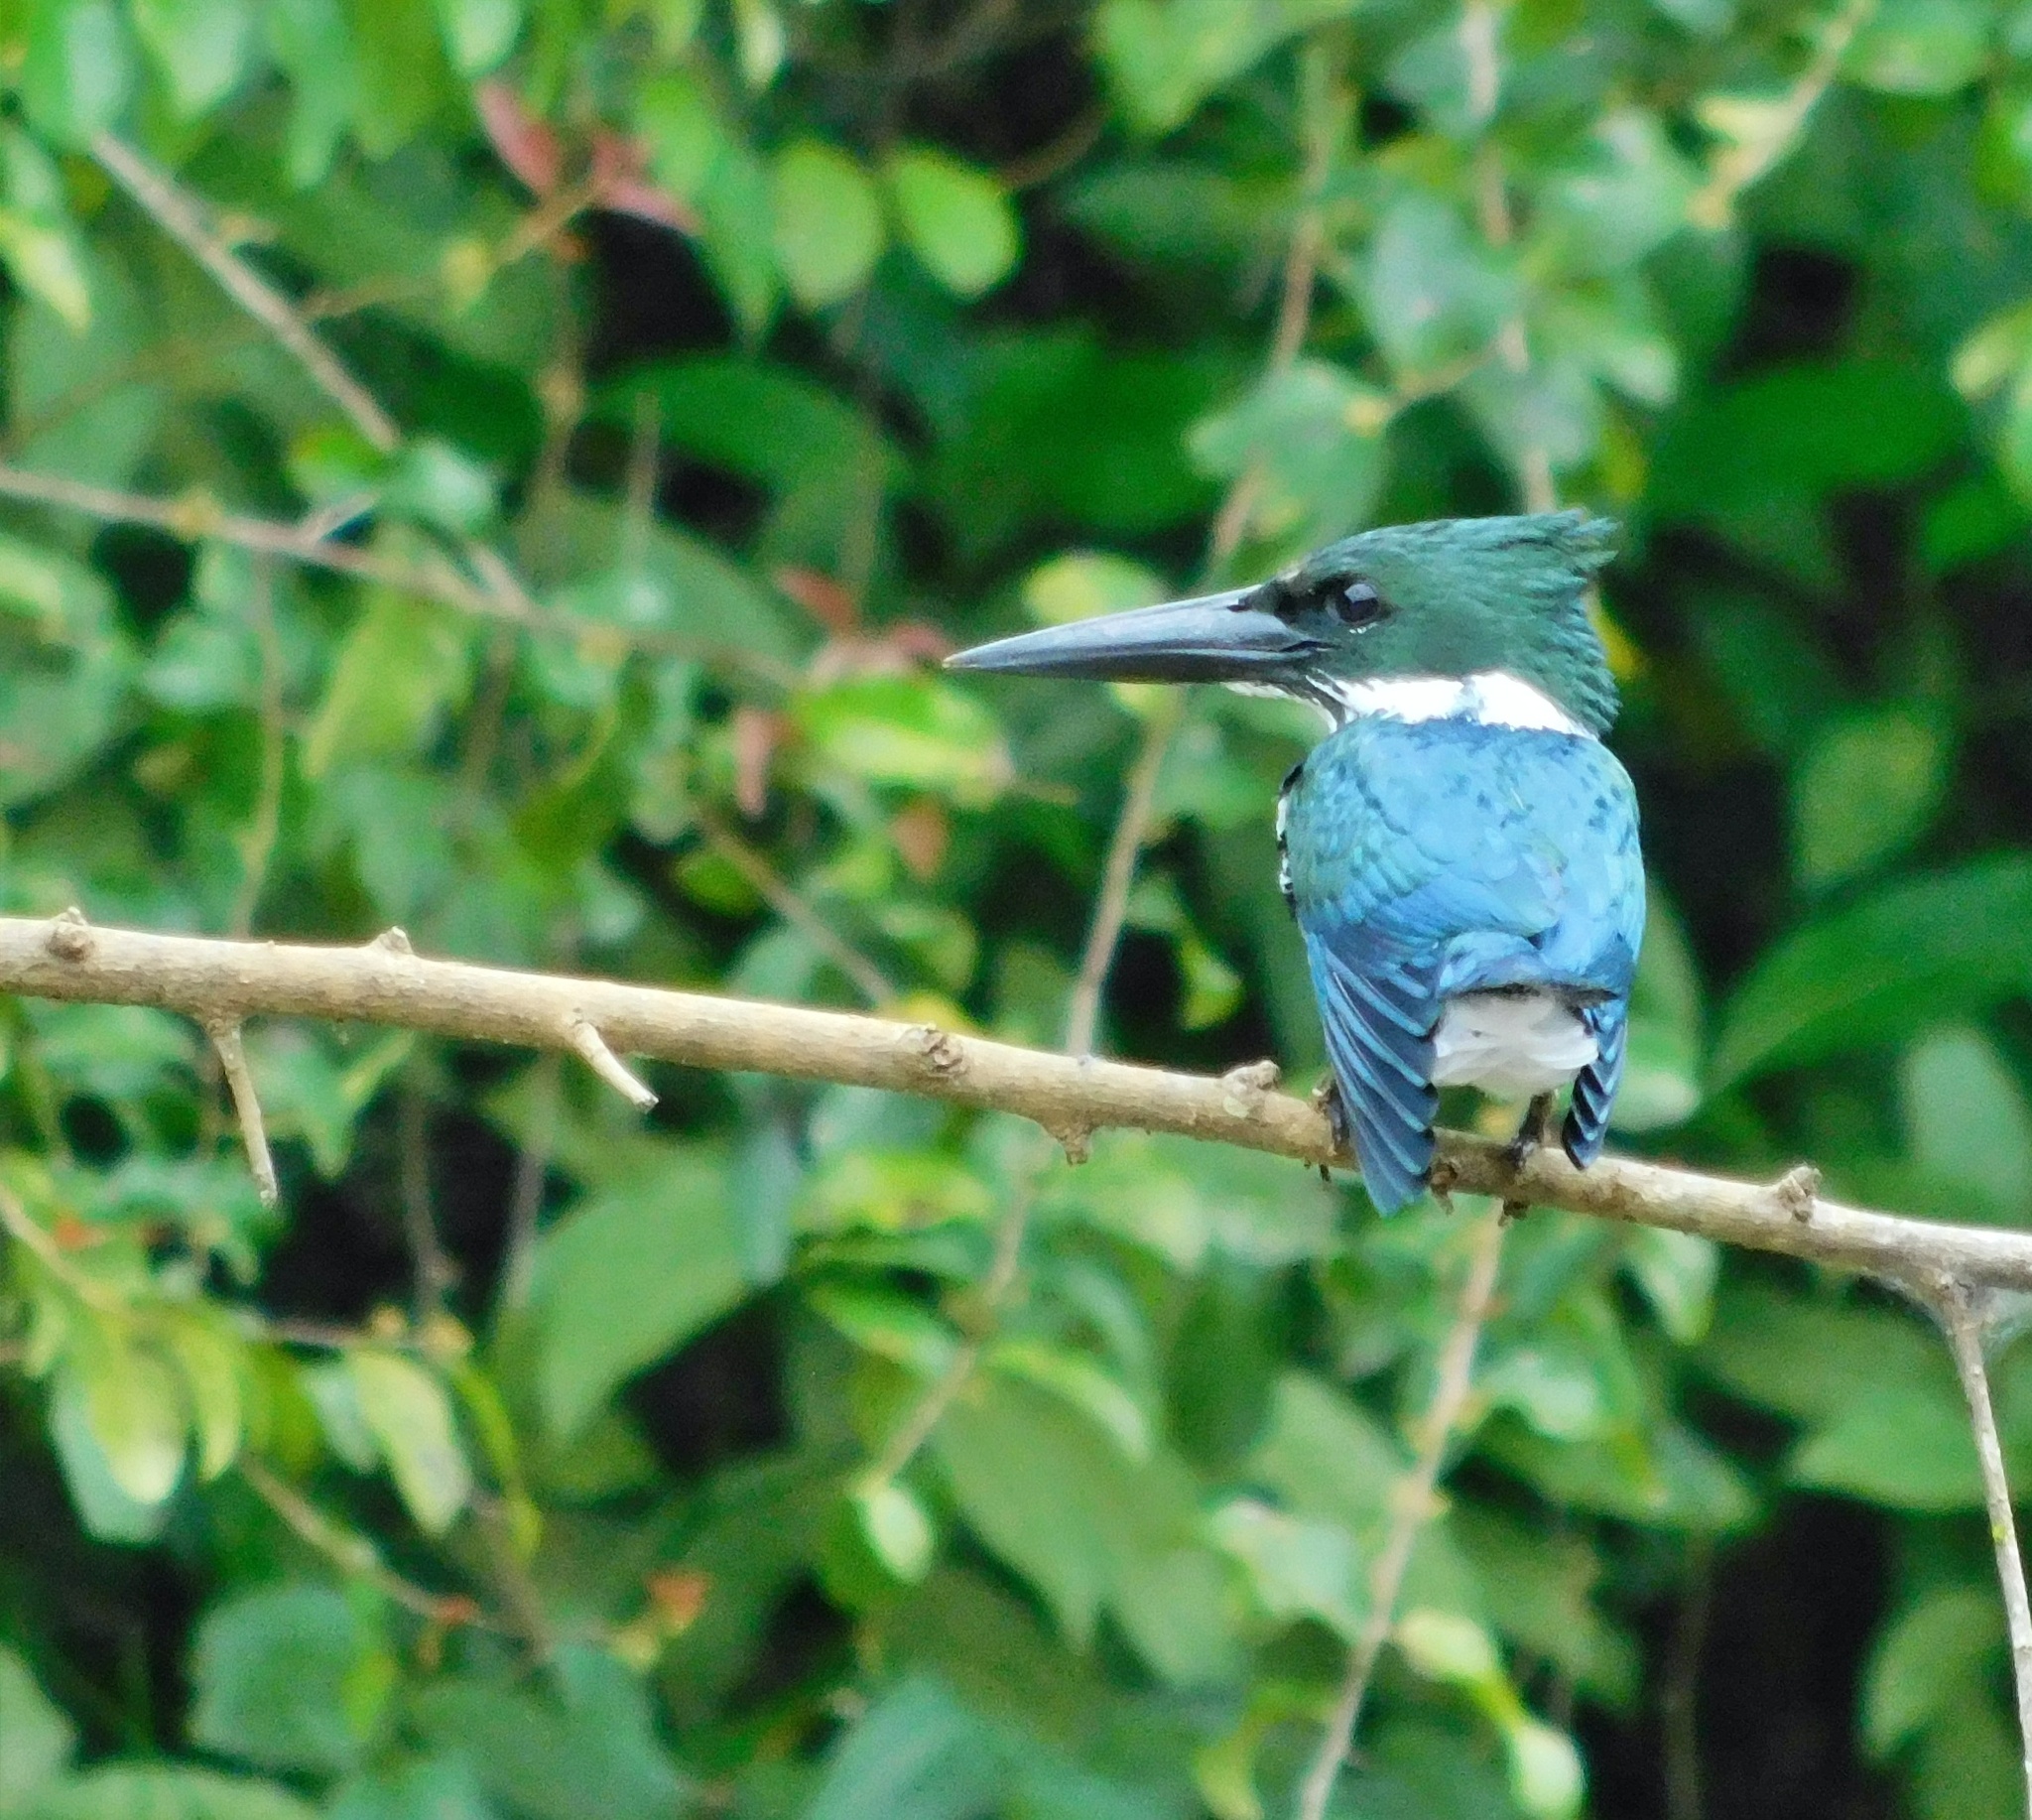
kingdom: Animalia
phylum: Chordata
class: Aves
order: Coraciiformes
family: Alcedinidae
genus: Chloroceryle
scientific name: Chloroceryle amazona
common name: Amazon kingfisher
